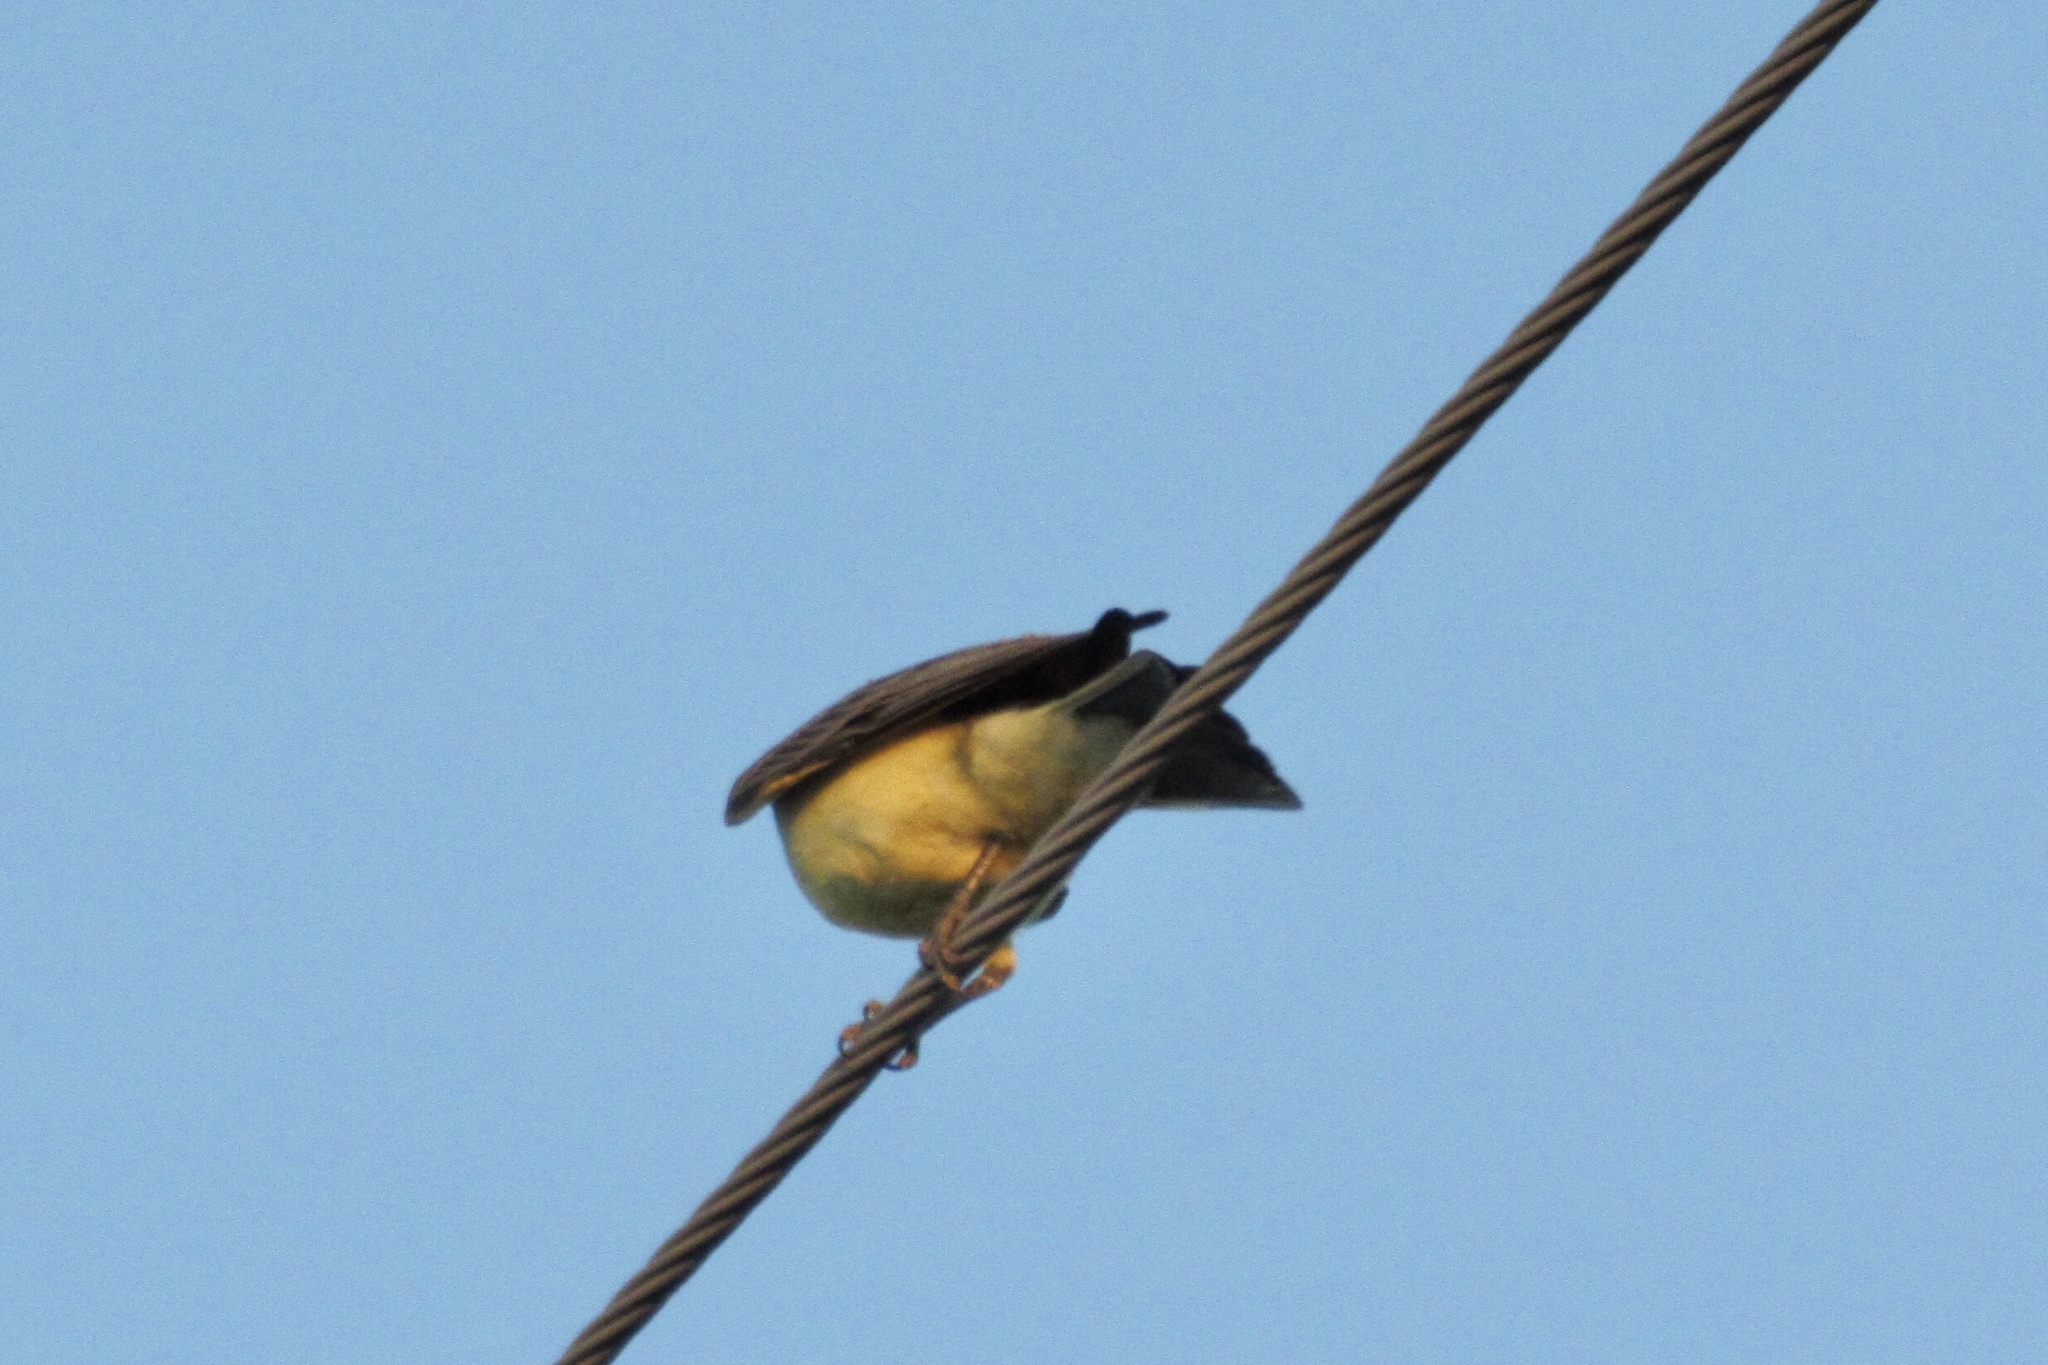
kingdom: Animalia
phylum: Chordata
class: Aves
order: Passeriformes
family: Tyrannidae
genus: Tyrannus
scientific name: Tyrannus verticalis
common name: Western kingbird
